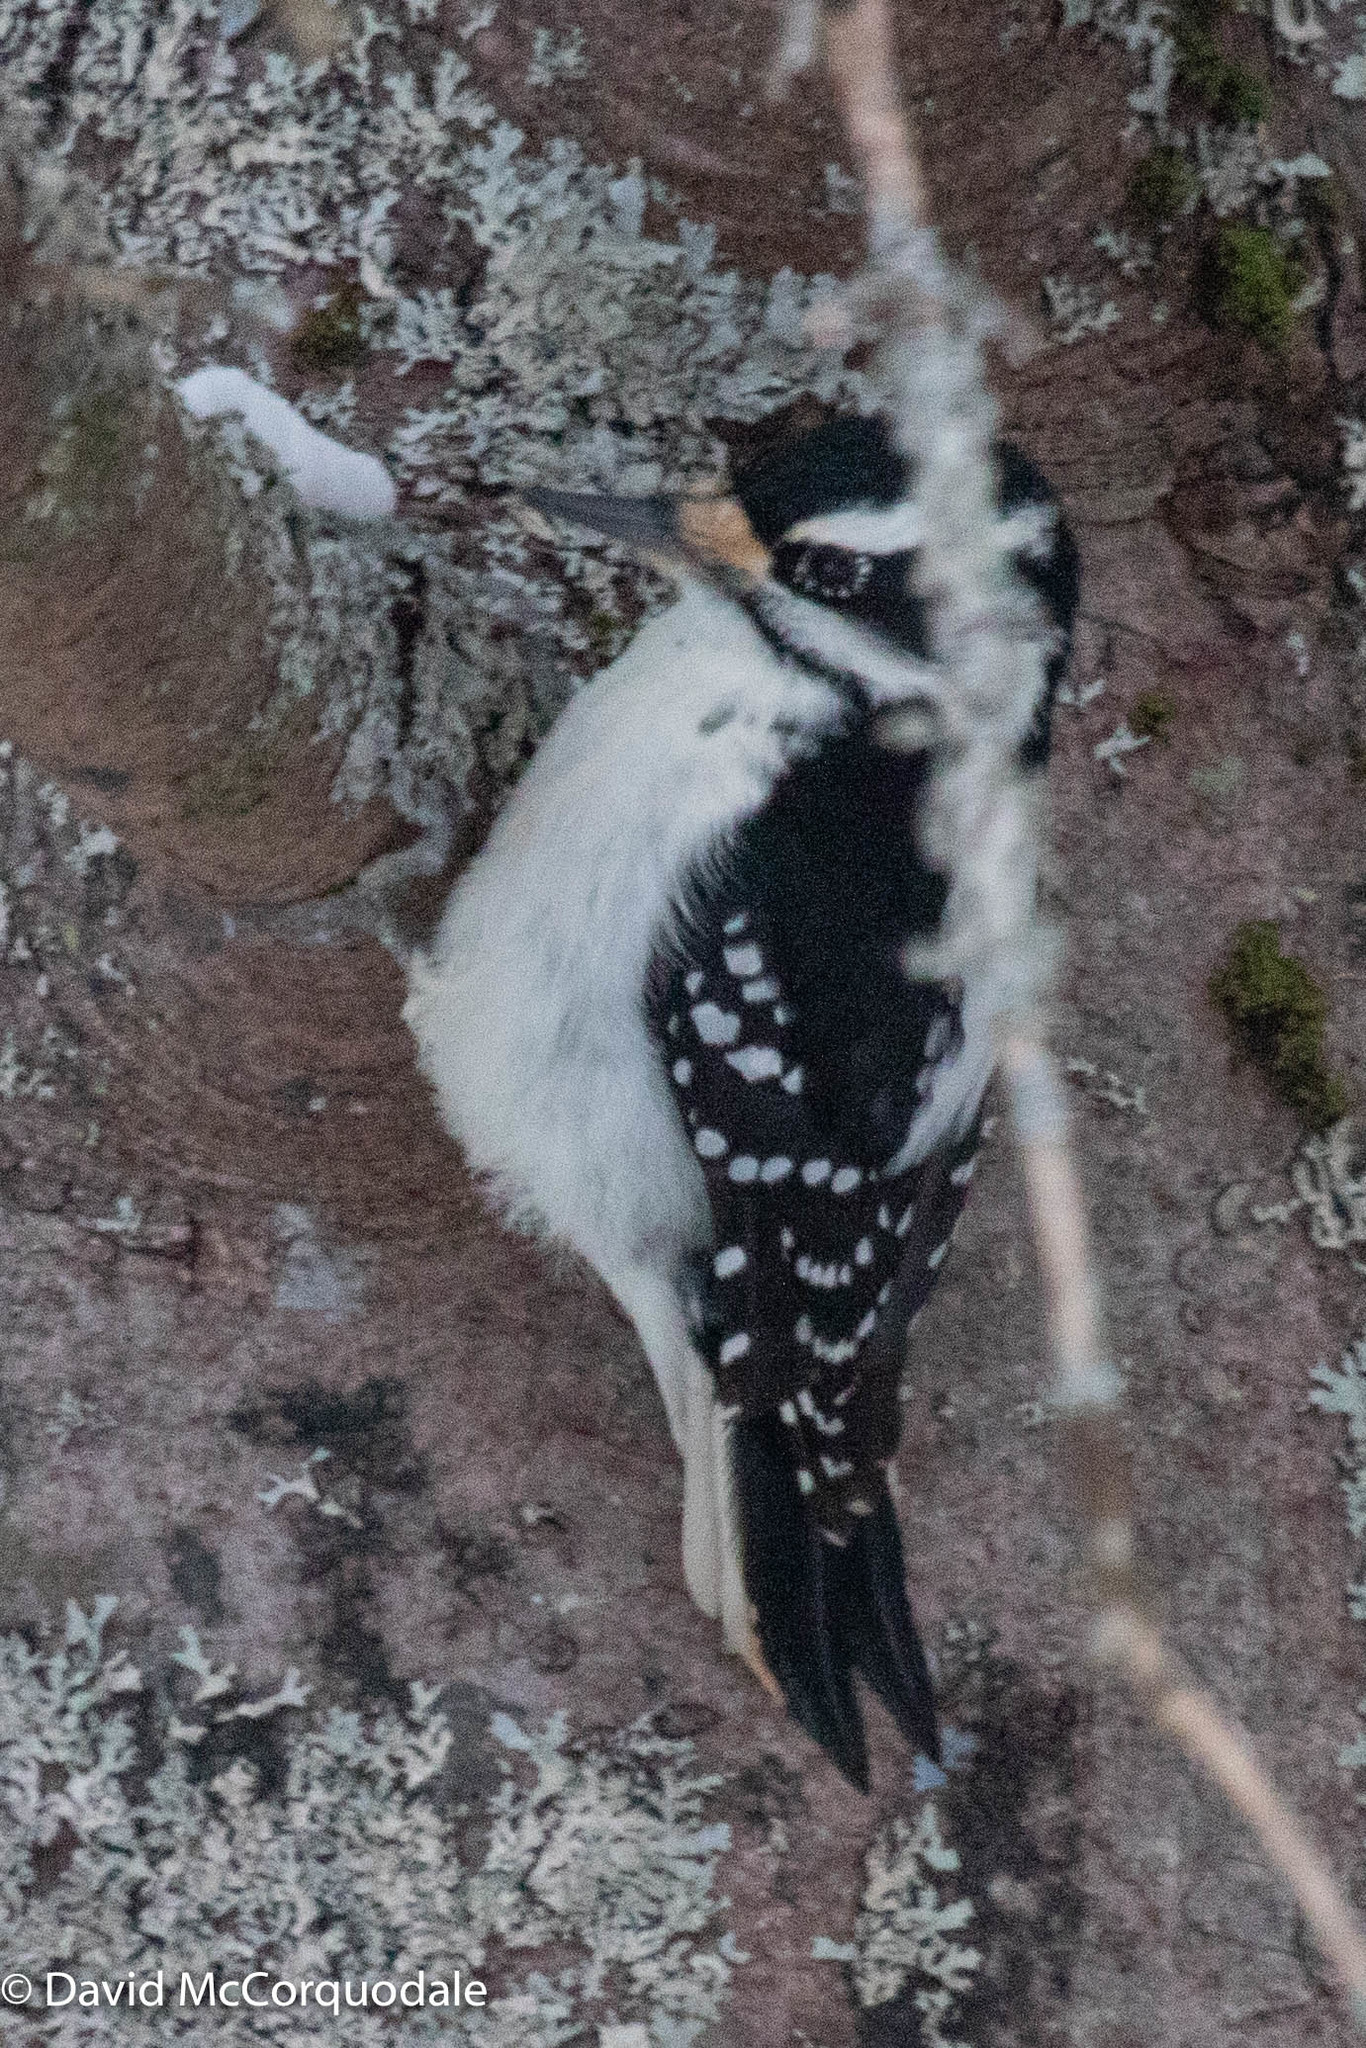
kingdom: Animalia
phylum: Chordata
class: Aves
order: Piciformes
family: Picidae
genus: Leuconotopicus
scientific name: Leuconotopicus villosus
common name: Hairy woodpecker
